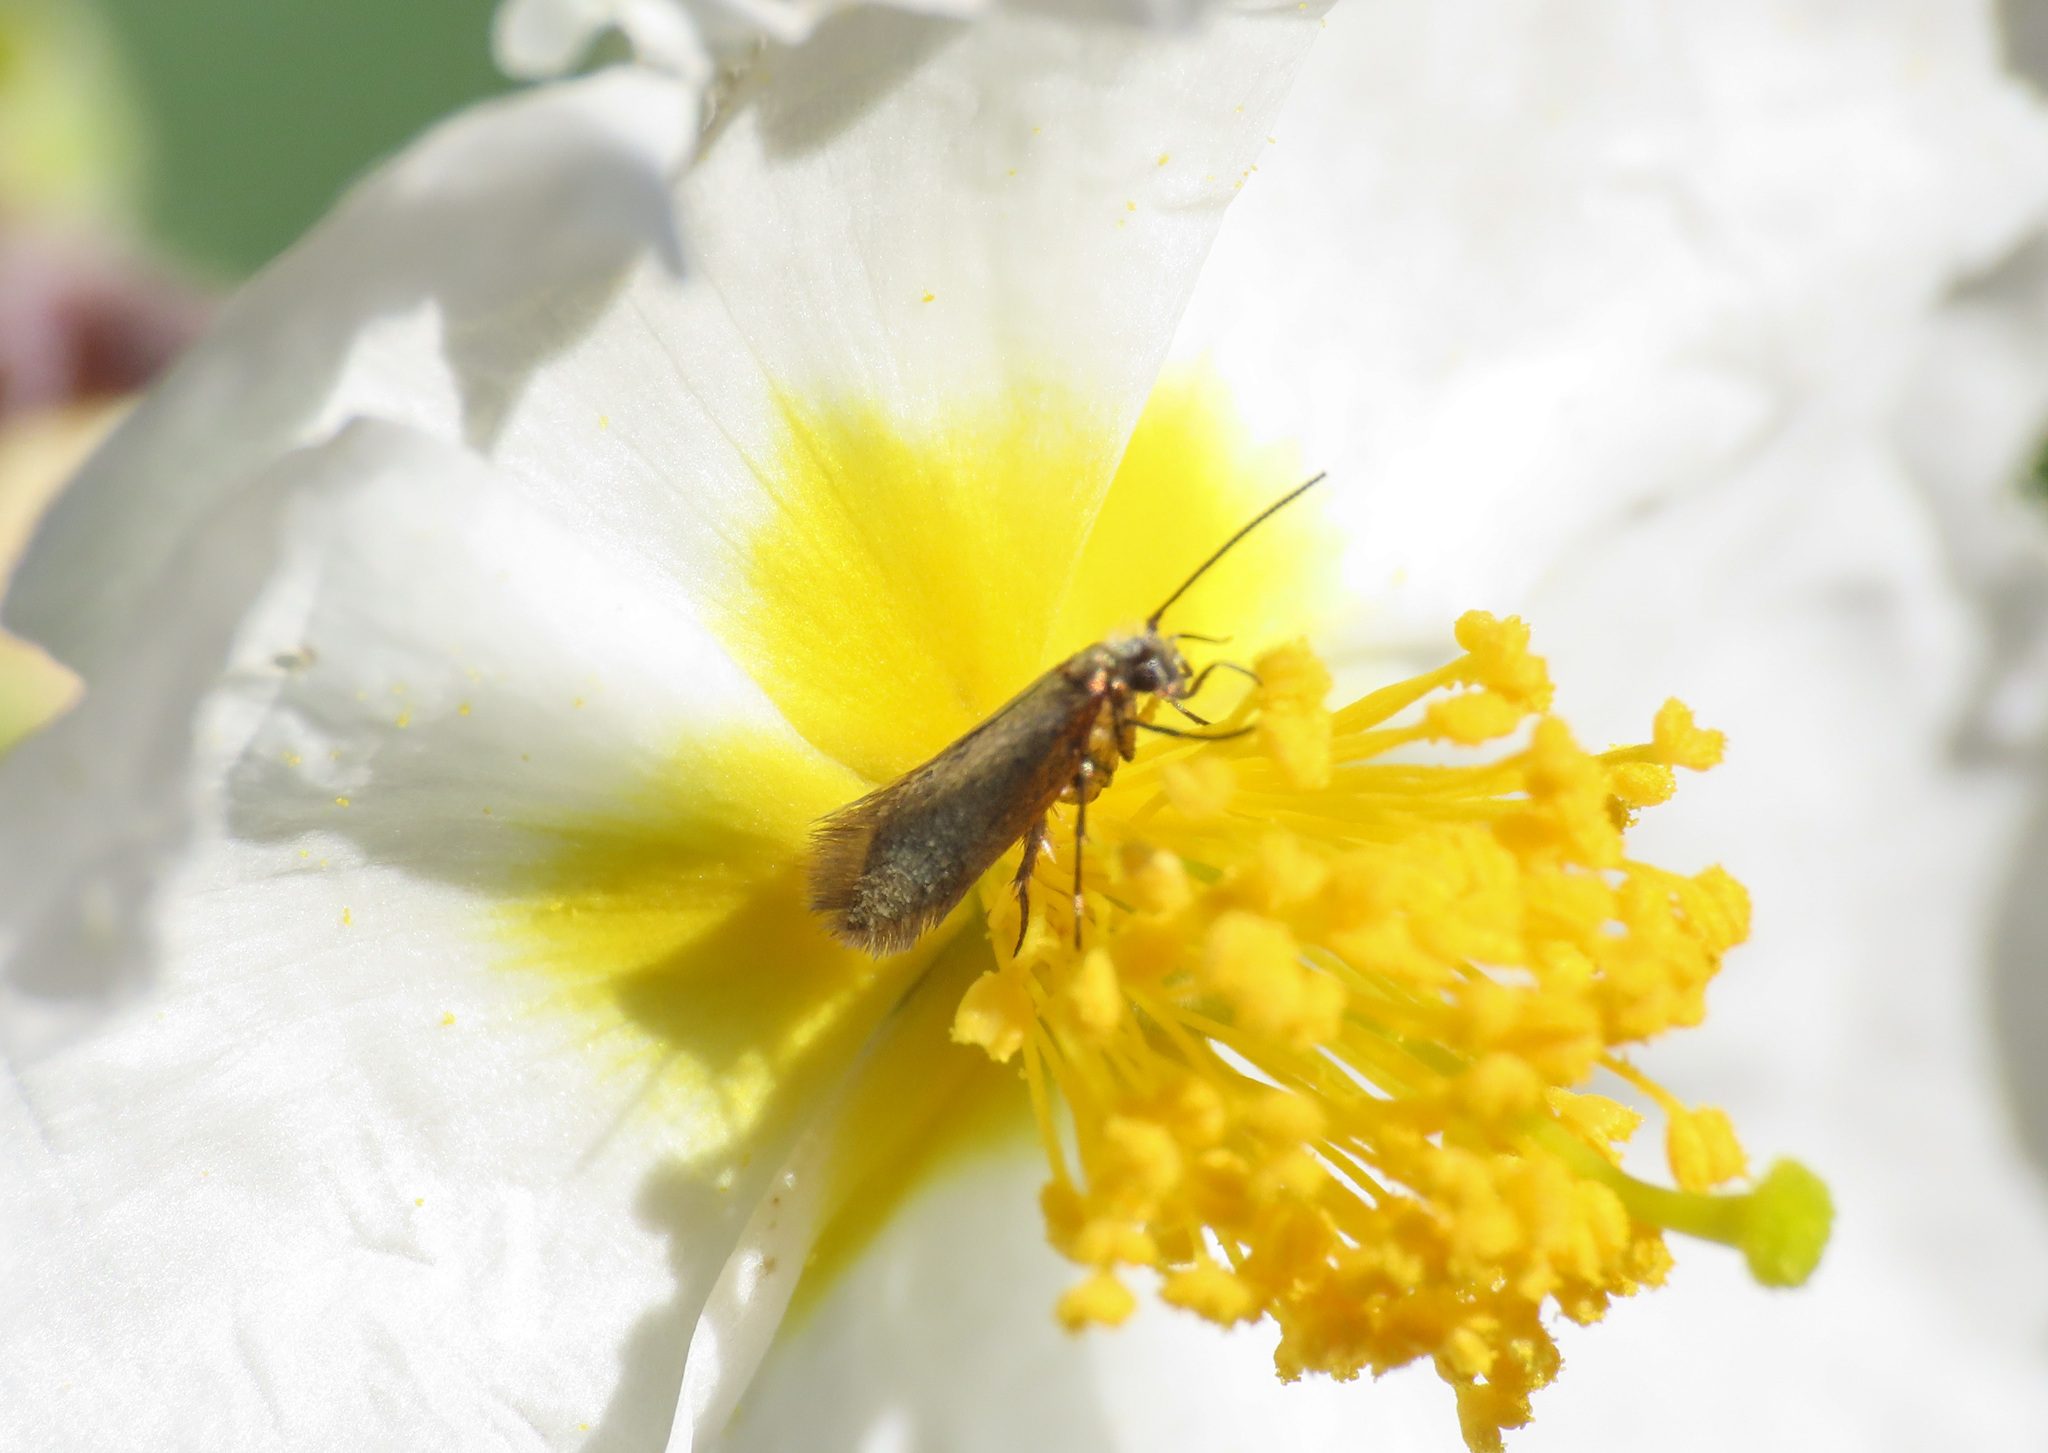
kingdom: Animalia
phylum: Arthropoda
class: Insecta
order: Lepidoptera
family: Micropterigidae
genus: Micropterix
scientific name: Micropterix calthella
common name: Plain gold
